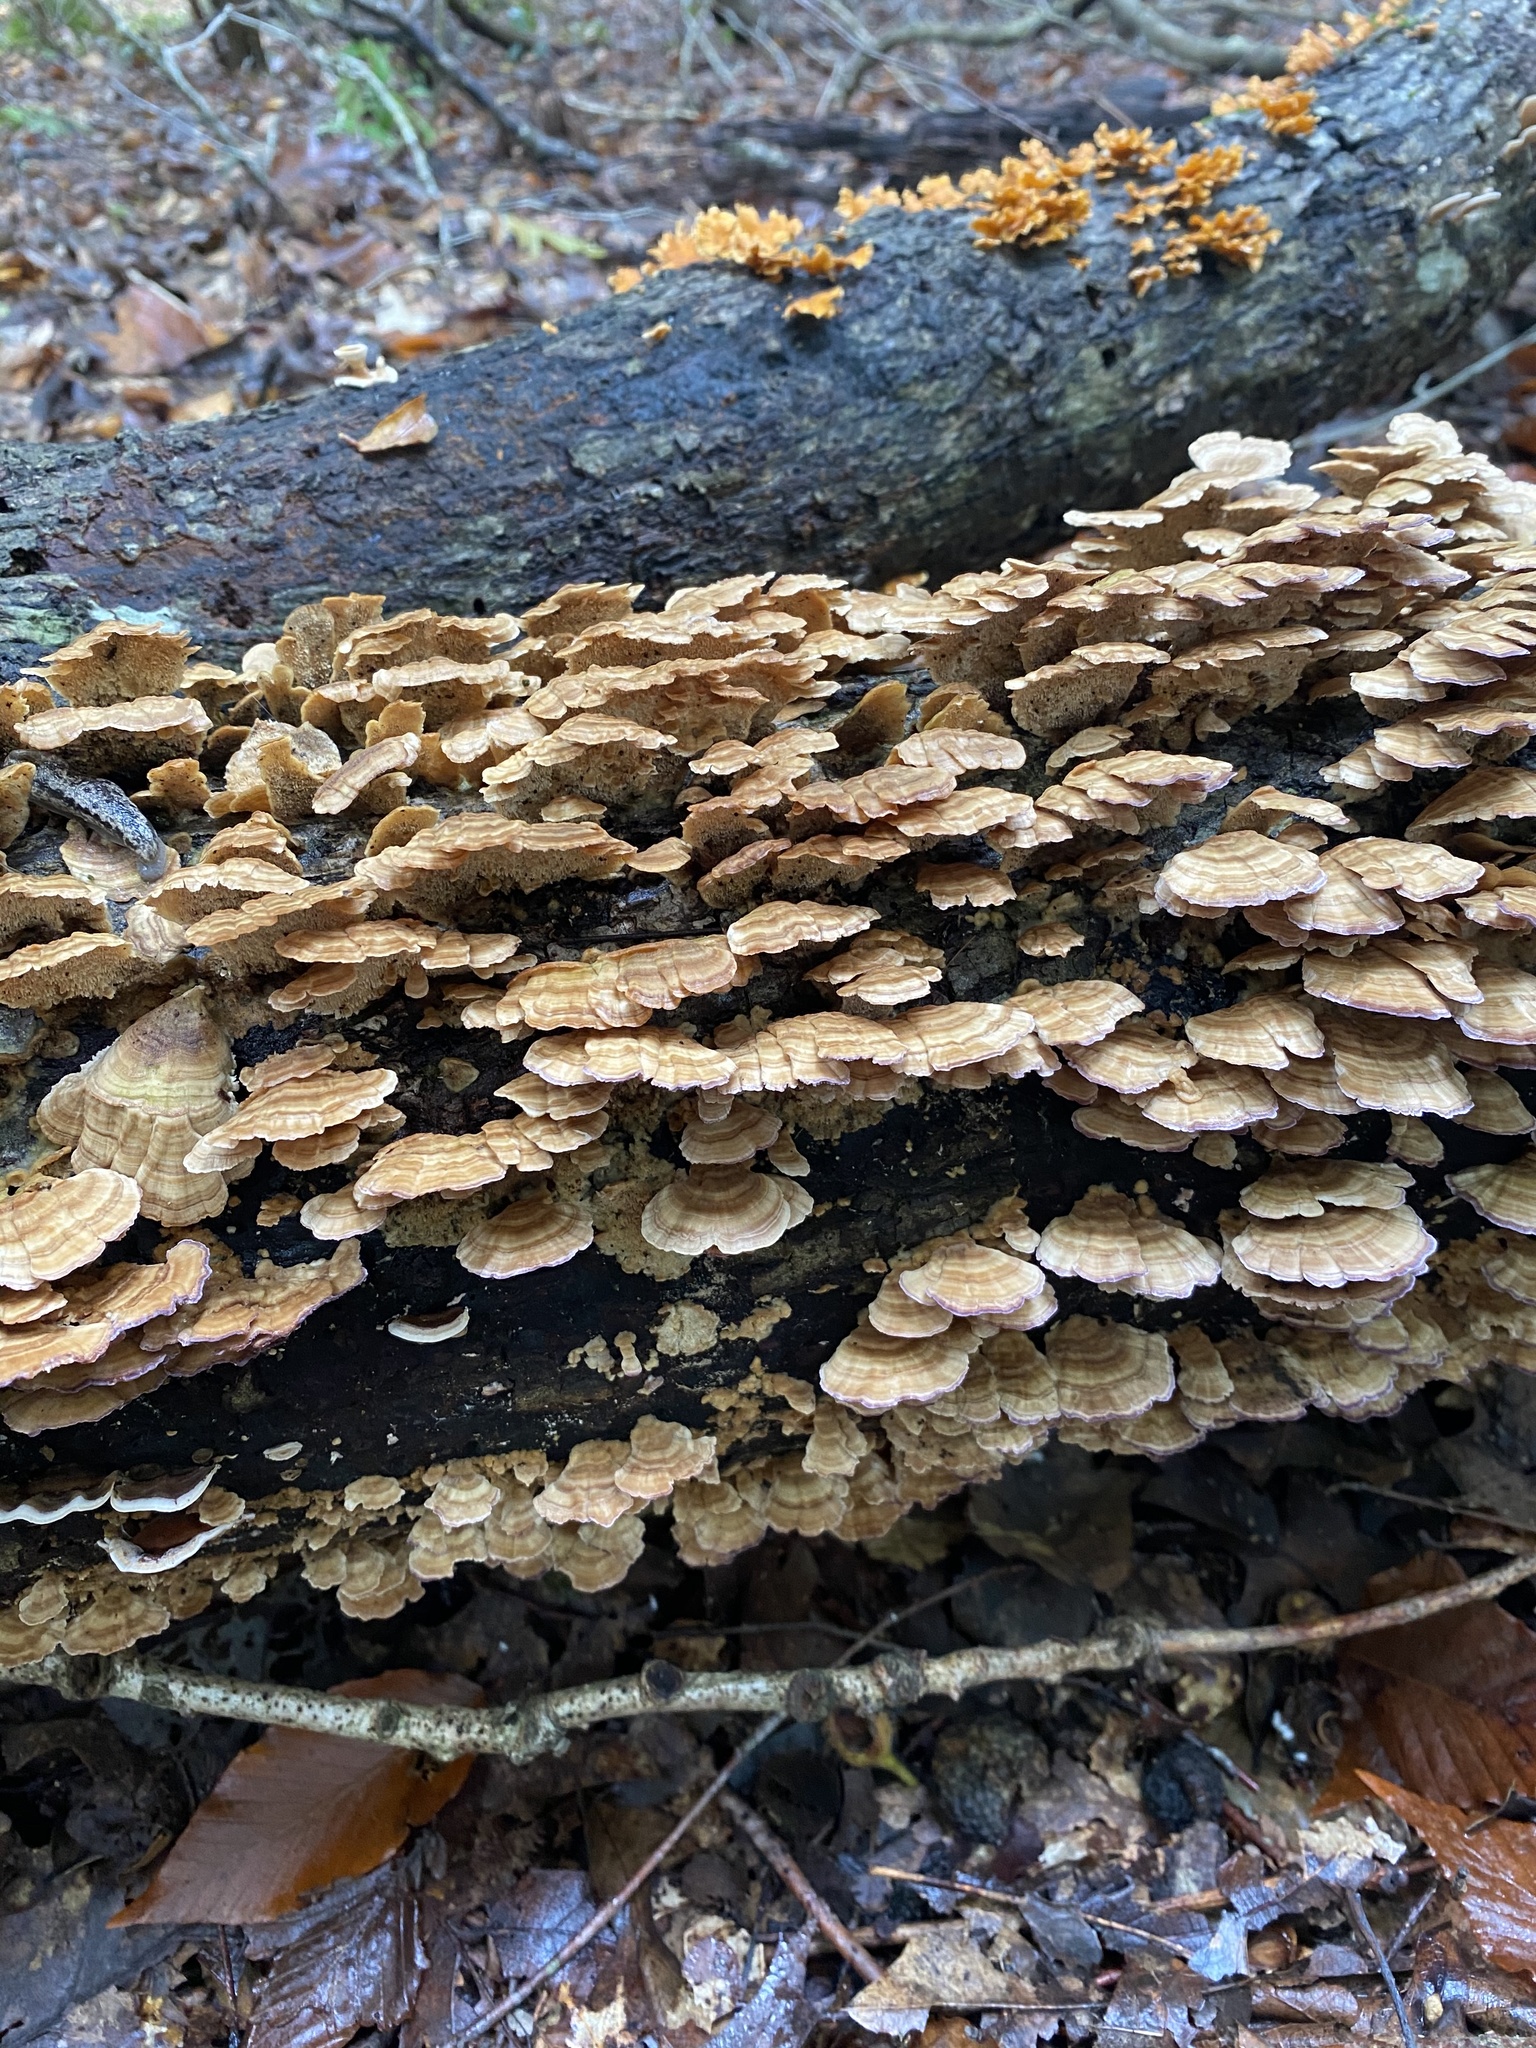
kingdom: Fungi
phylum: Basidiomycota
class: Agaricomycetes
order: Hymenochaetales
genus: Trichaptum
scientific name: Trichaptum biforme
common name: Violet-toothed polypore
